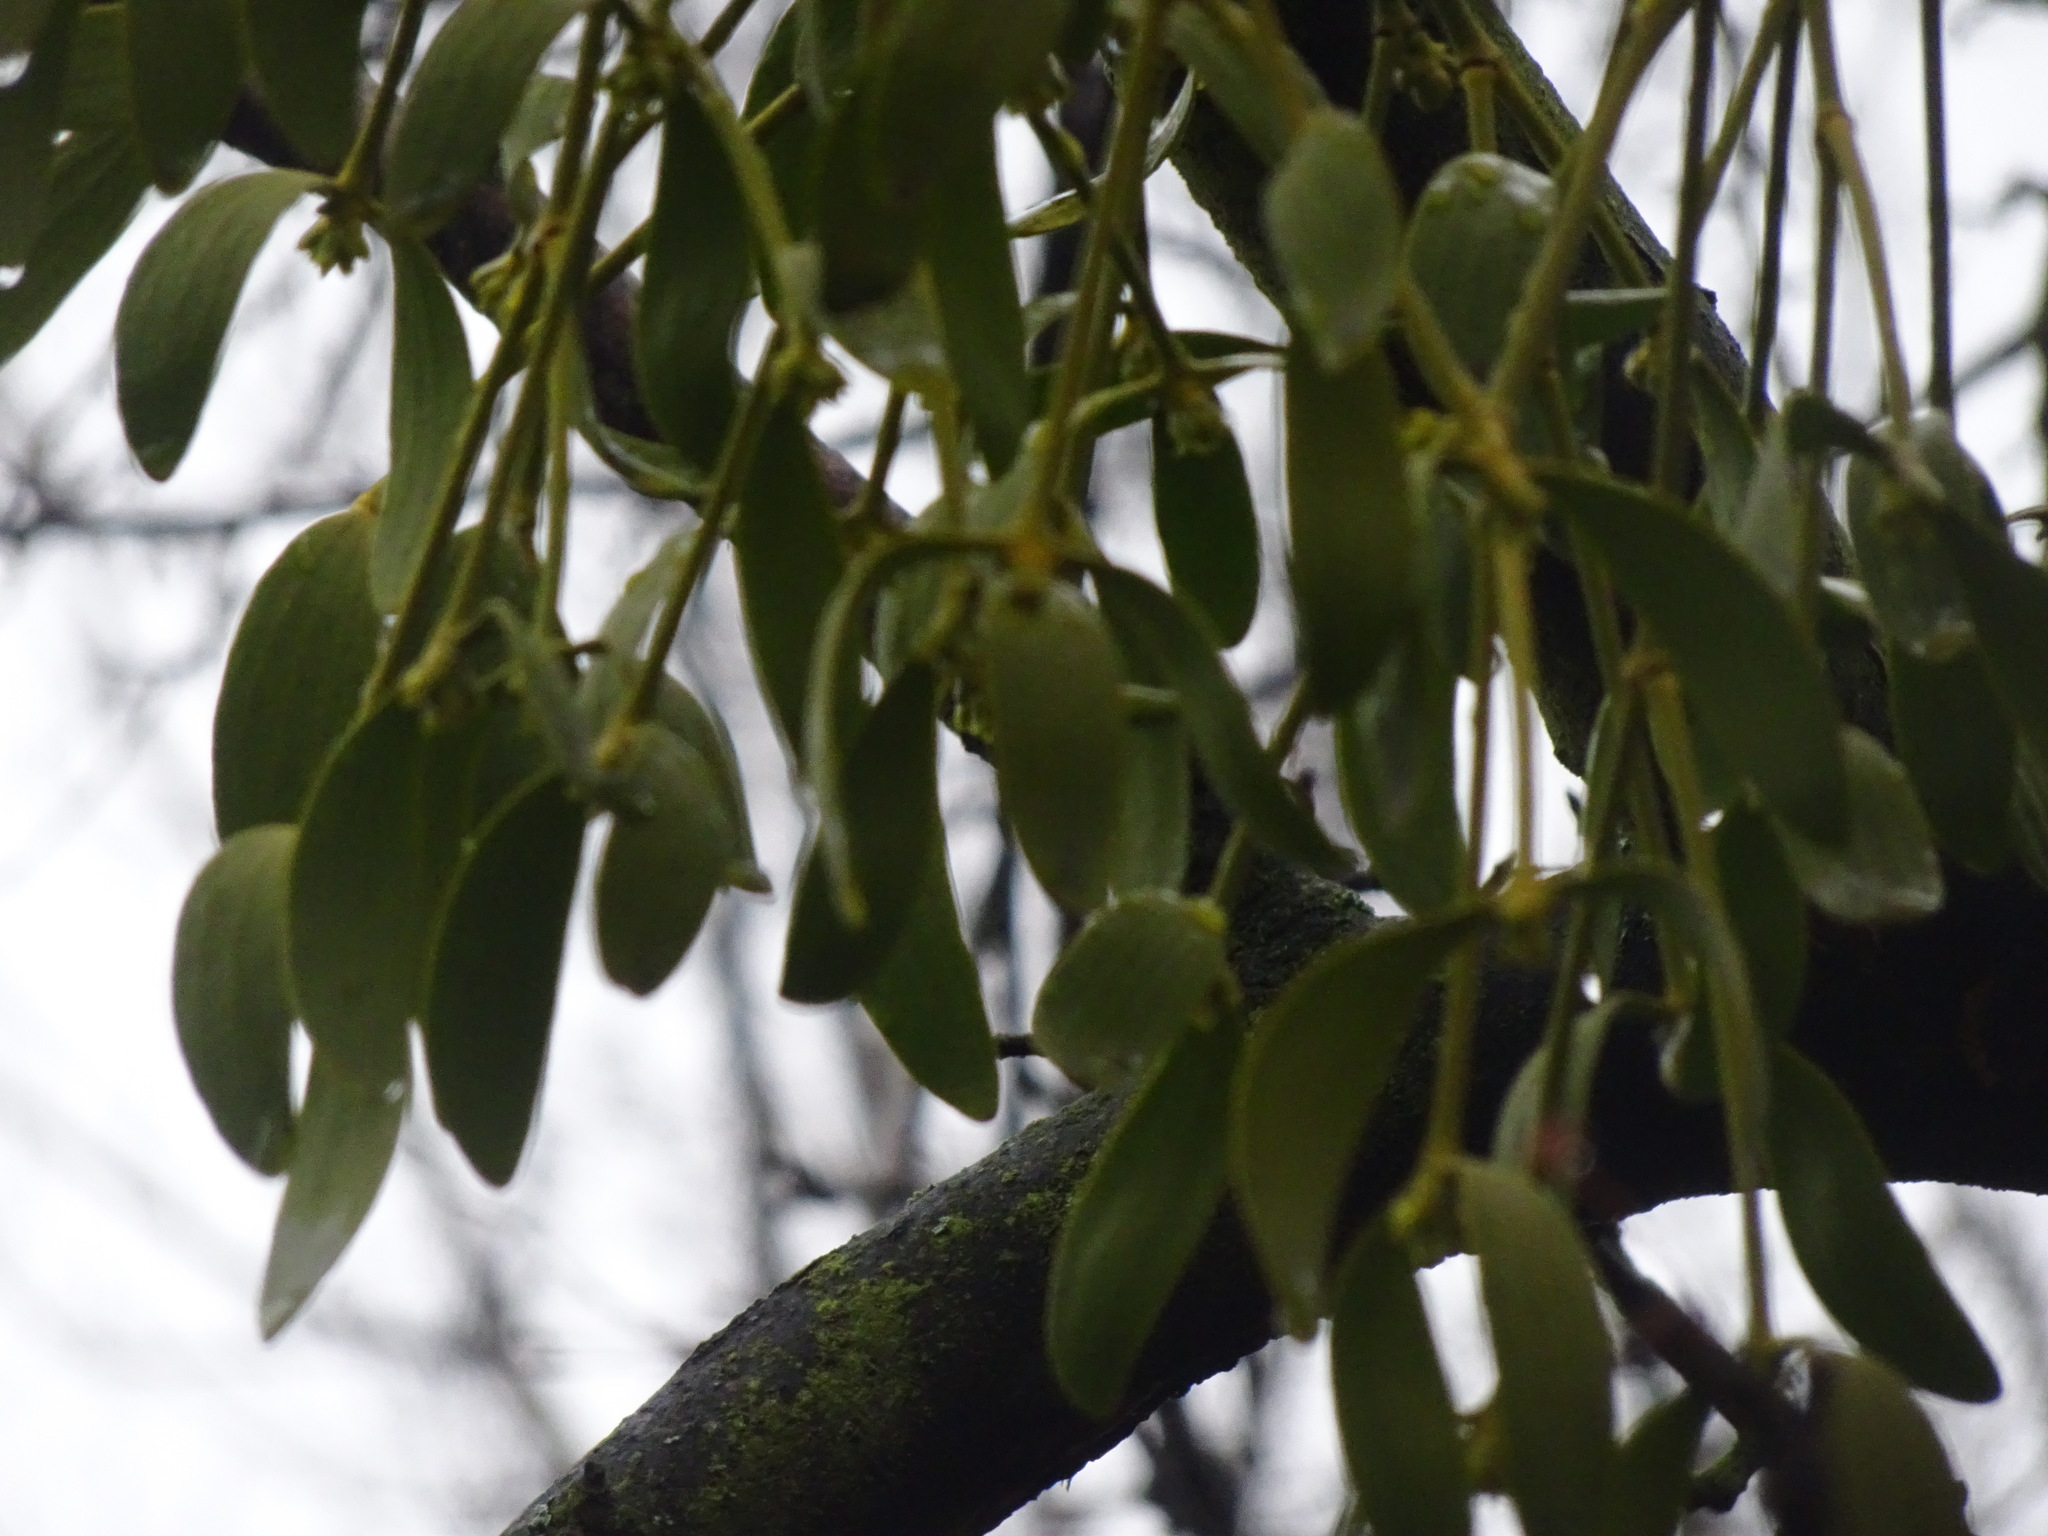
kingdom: Plantae
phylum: Tracheophyta
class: Magnoliopsida
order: Santalales
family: Viscaceae
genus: Viscum
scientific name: Viscum album
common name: Mistletoe
